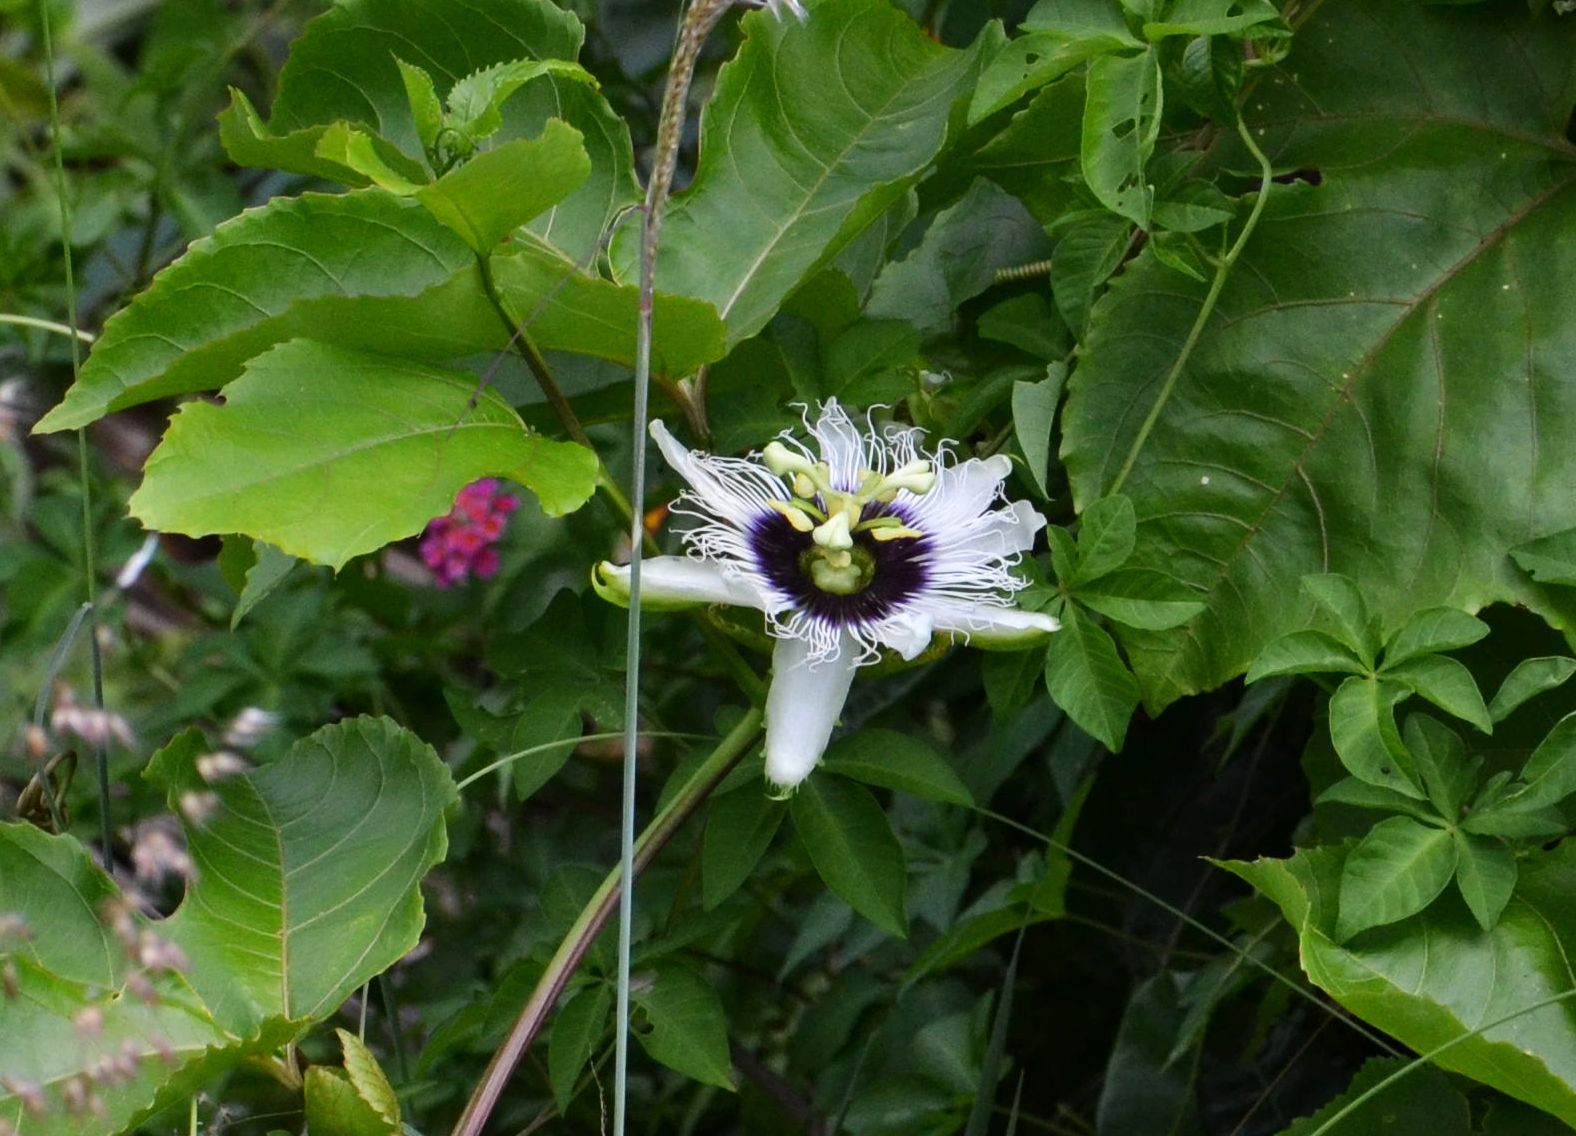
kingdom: Plantae
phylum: Tracheophyta
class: Magnoliopsida
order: Malpighiales
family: Passifloraceae
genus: Passiflora
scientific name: Passiflora edulis
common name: Purple granadilla
